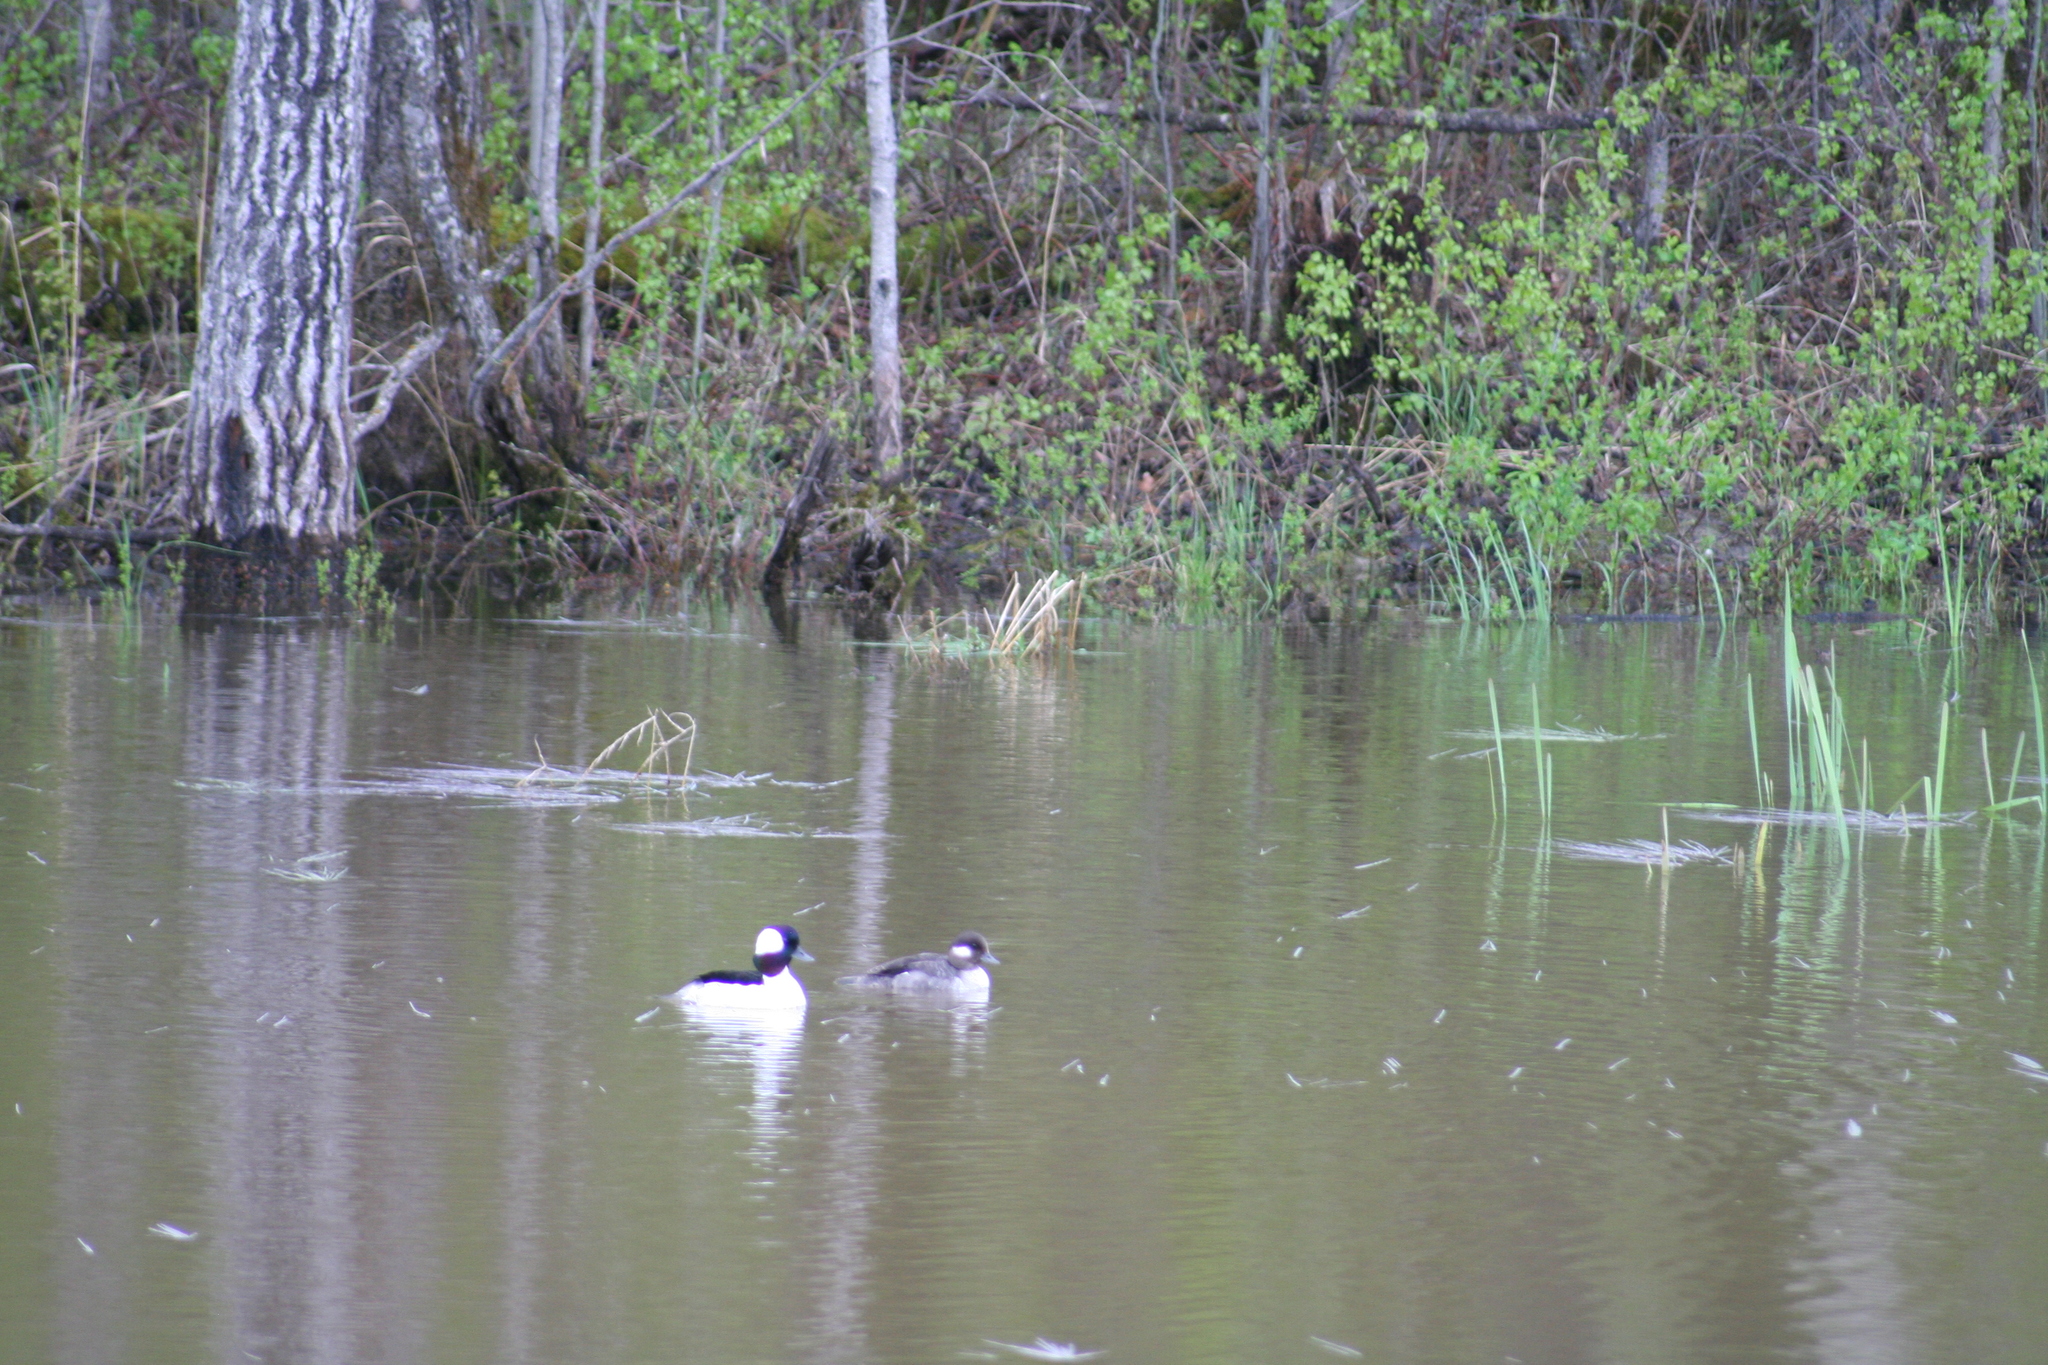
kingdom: Animalia
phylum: Chordata
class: Aves
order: Anseriformes
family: Anatidae
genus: Bucephala
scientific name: Bucephala albeola
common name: Bufflehead
